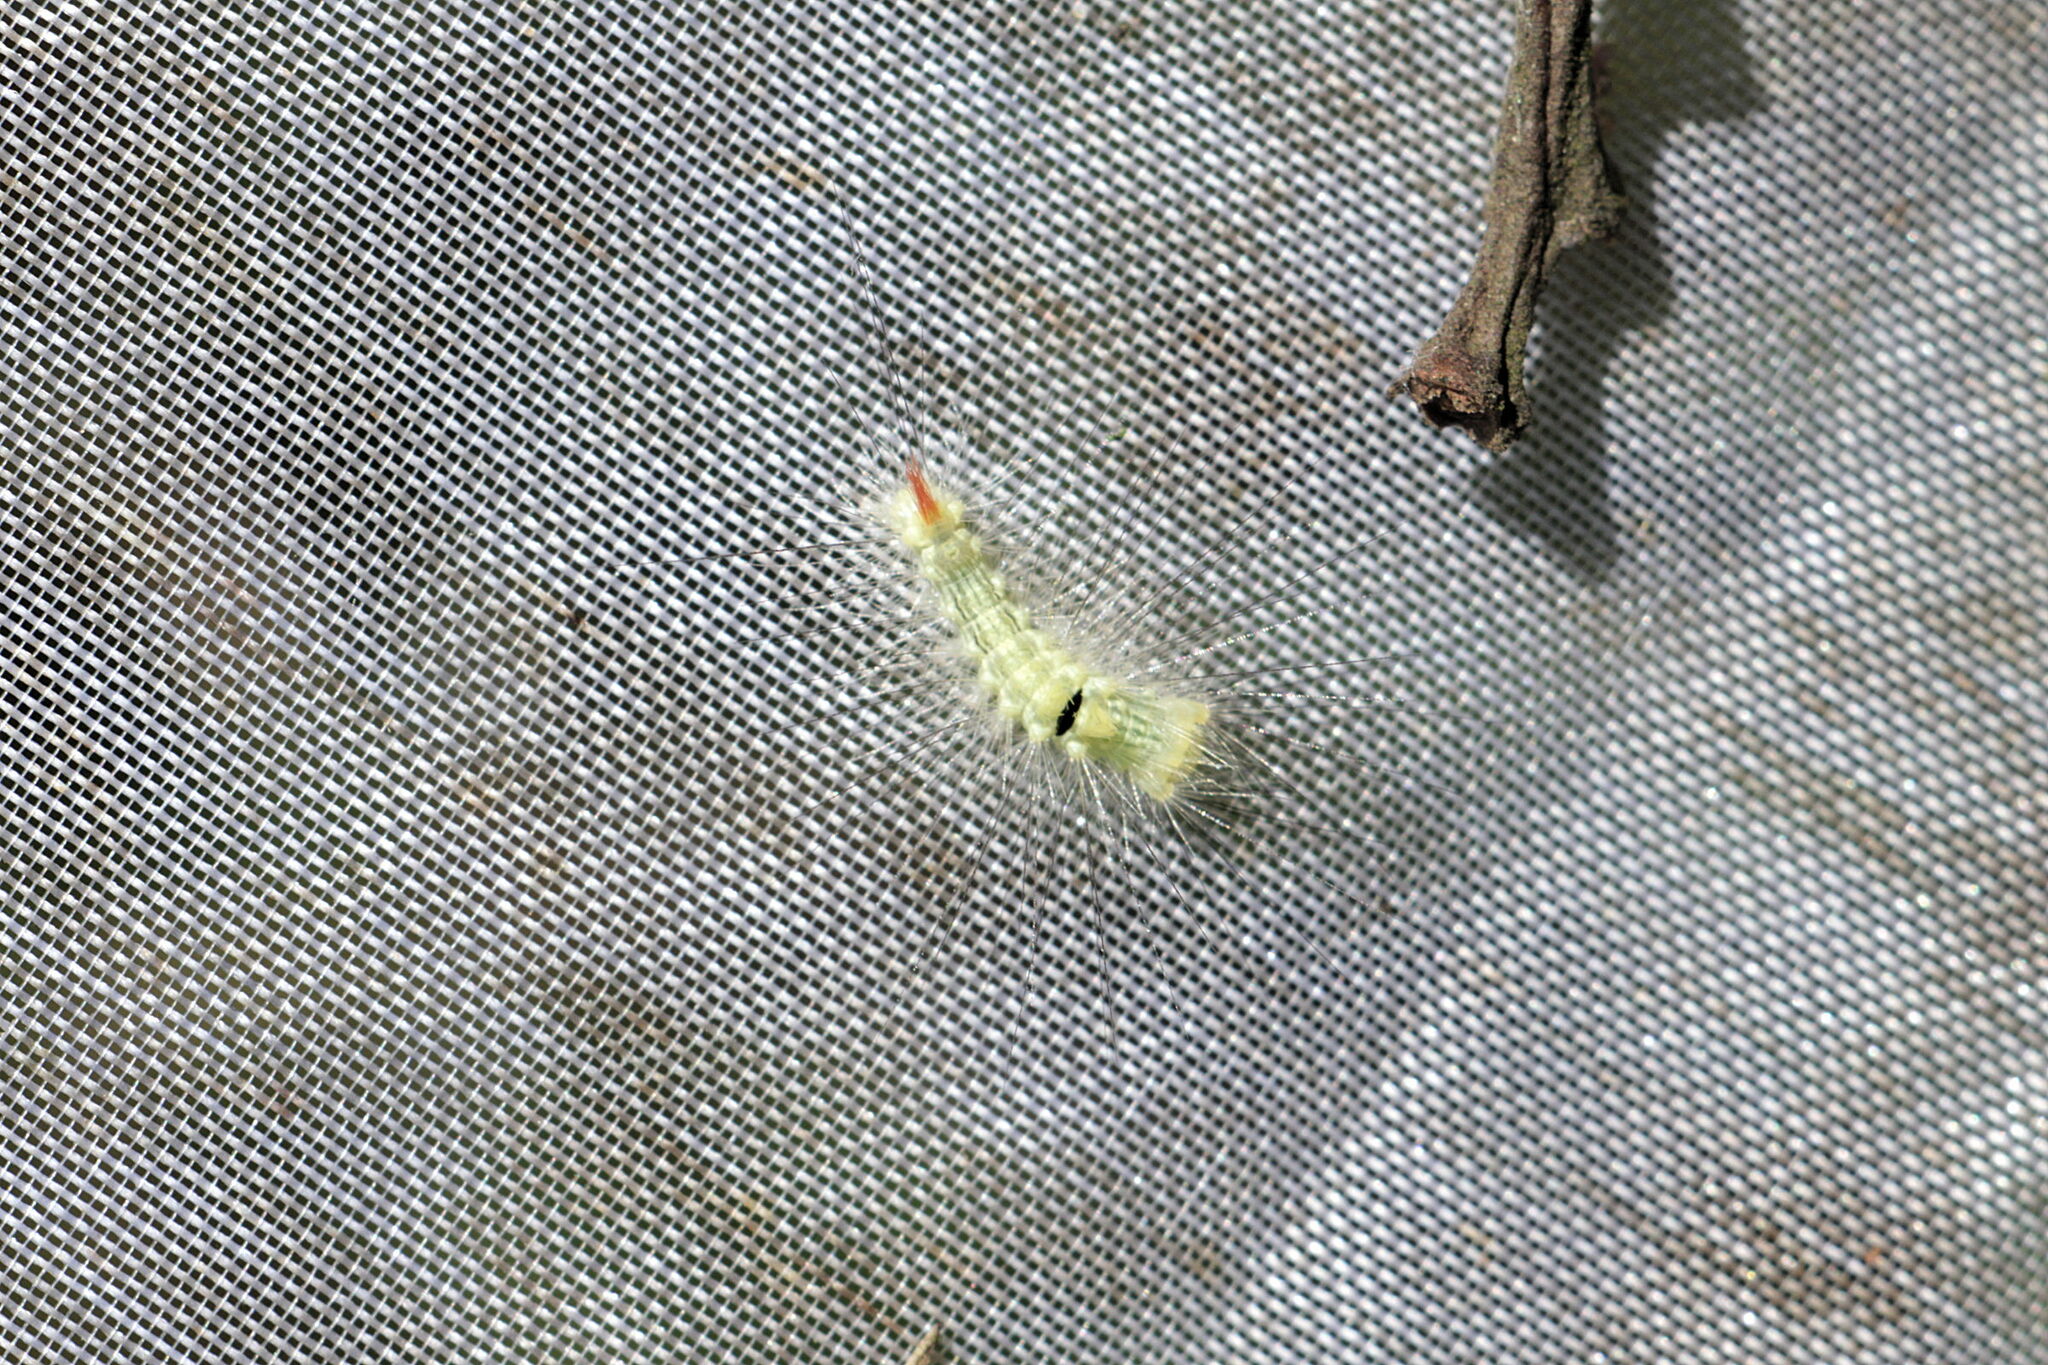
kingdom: Animalia
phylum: Arthropoda
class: Insecta
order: Lepidoptera
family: Erebidae
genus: Calliteara
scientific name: Calliteara pudibunda
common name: Pale tussock
